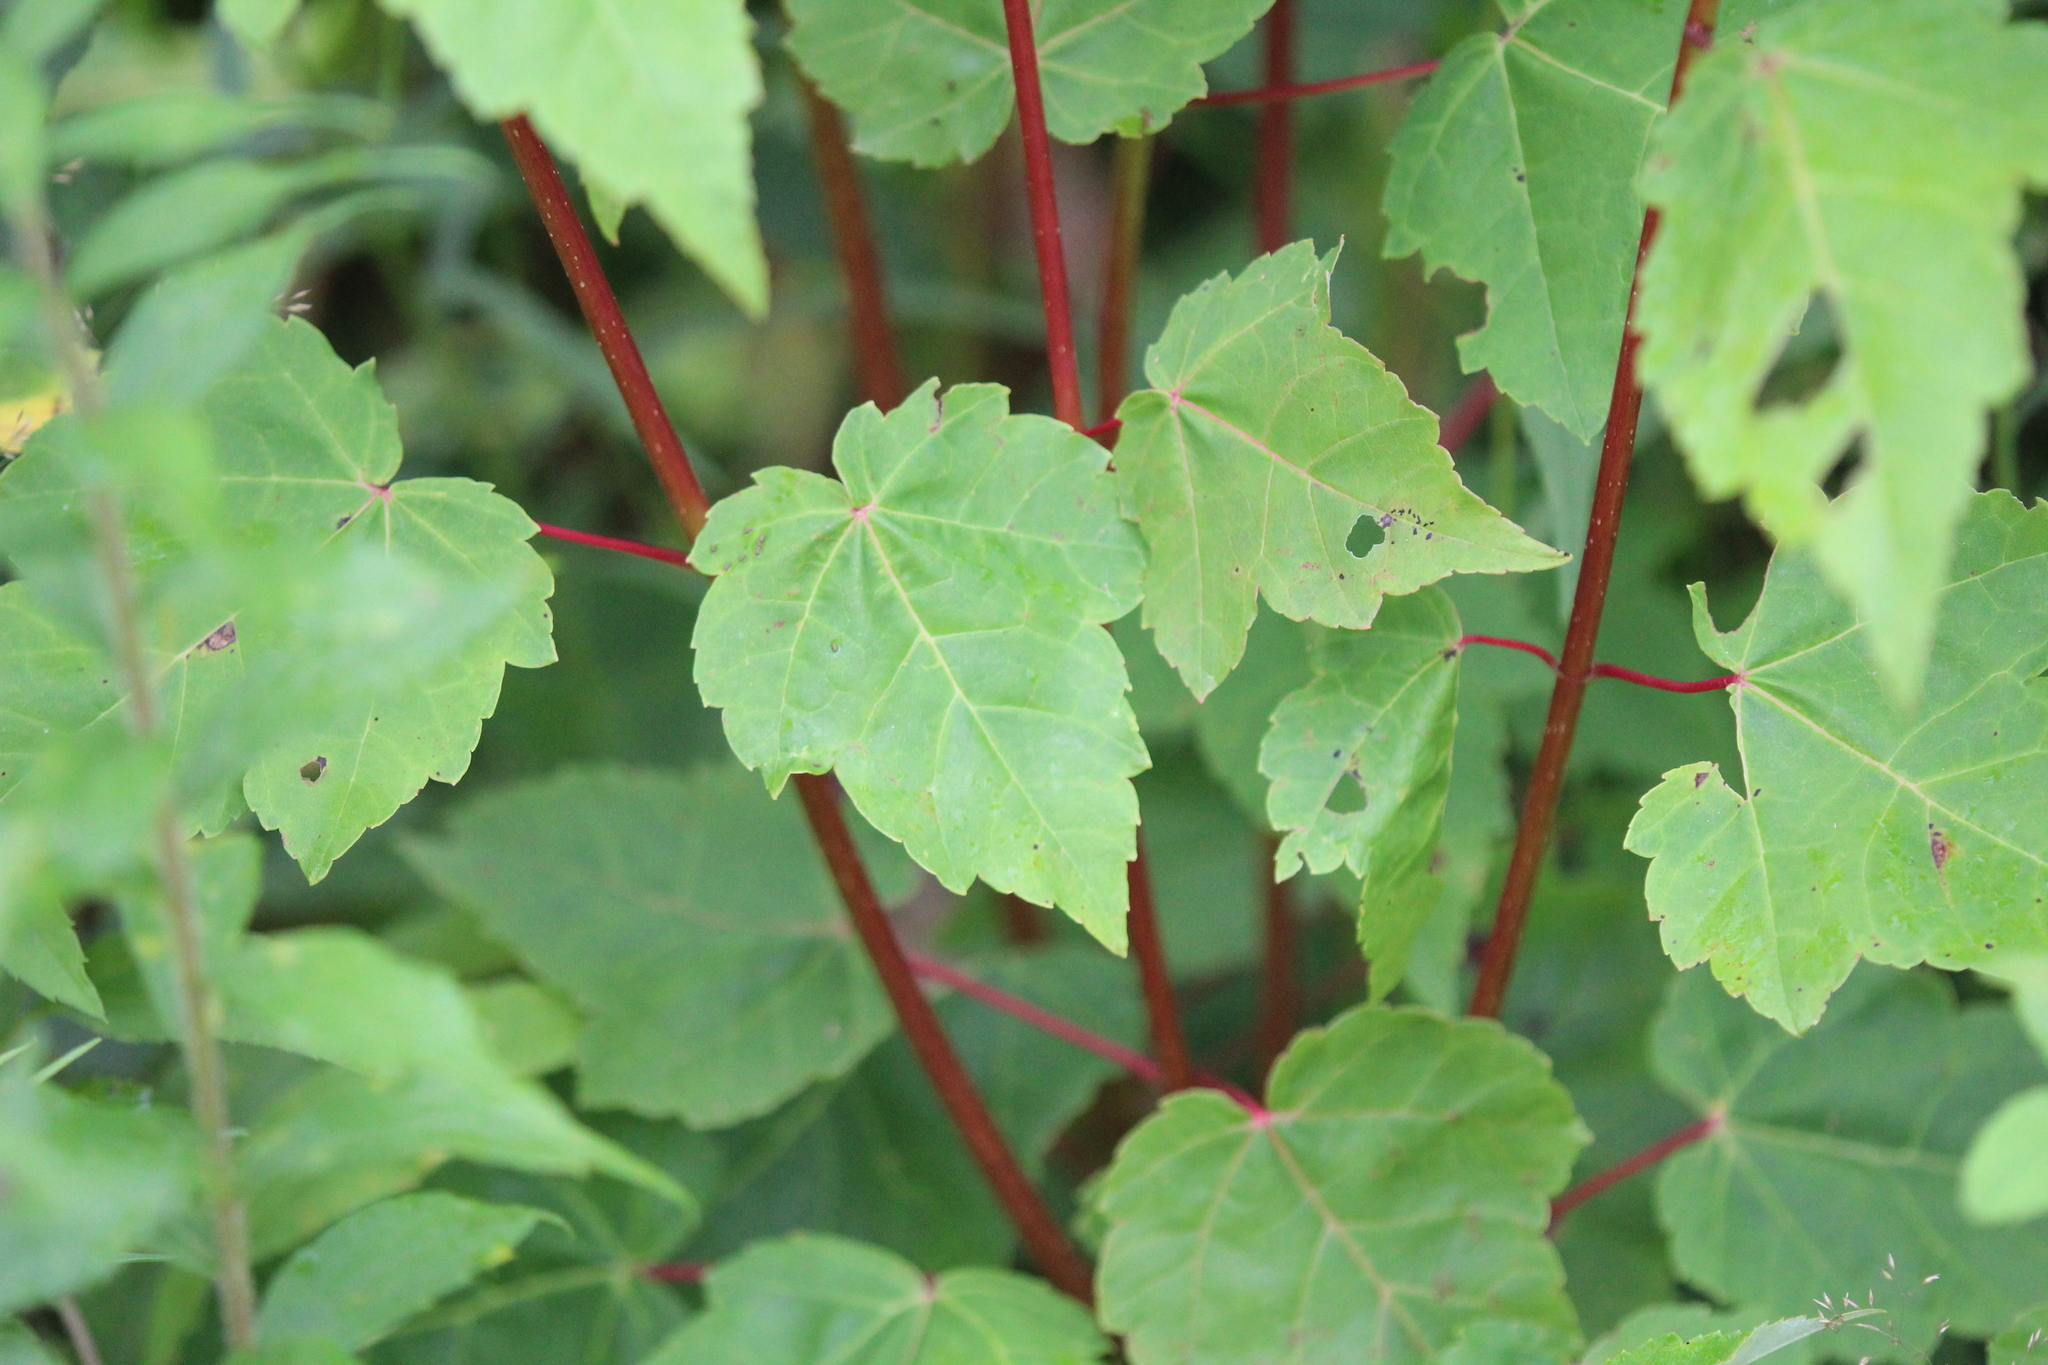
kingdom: Plantae
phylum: Tracheophyta
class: Magnoliopsida
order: Sapindales
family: Sapindaceae
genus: Acer
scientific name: Acer rubrum
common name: Red maple
